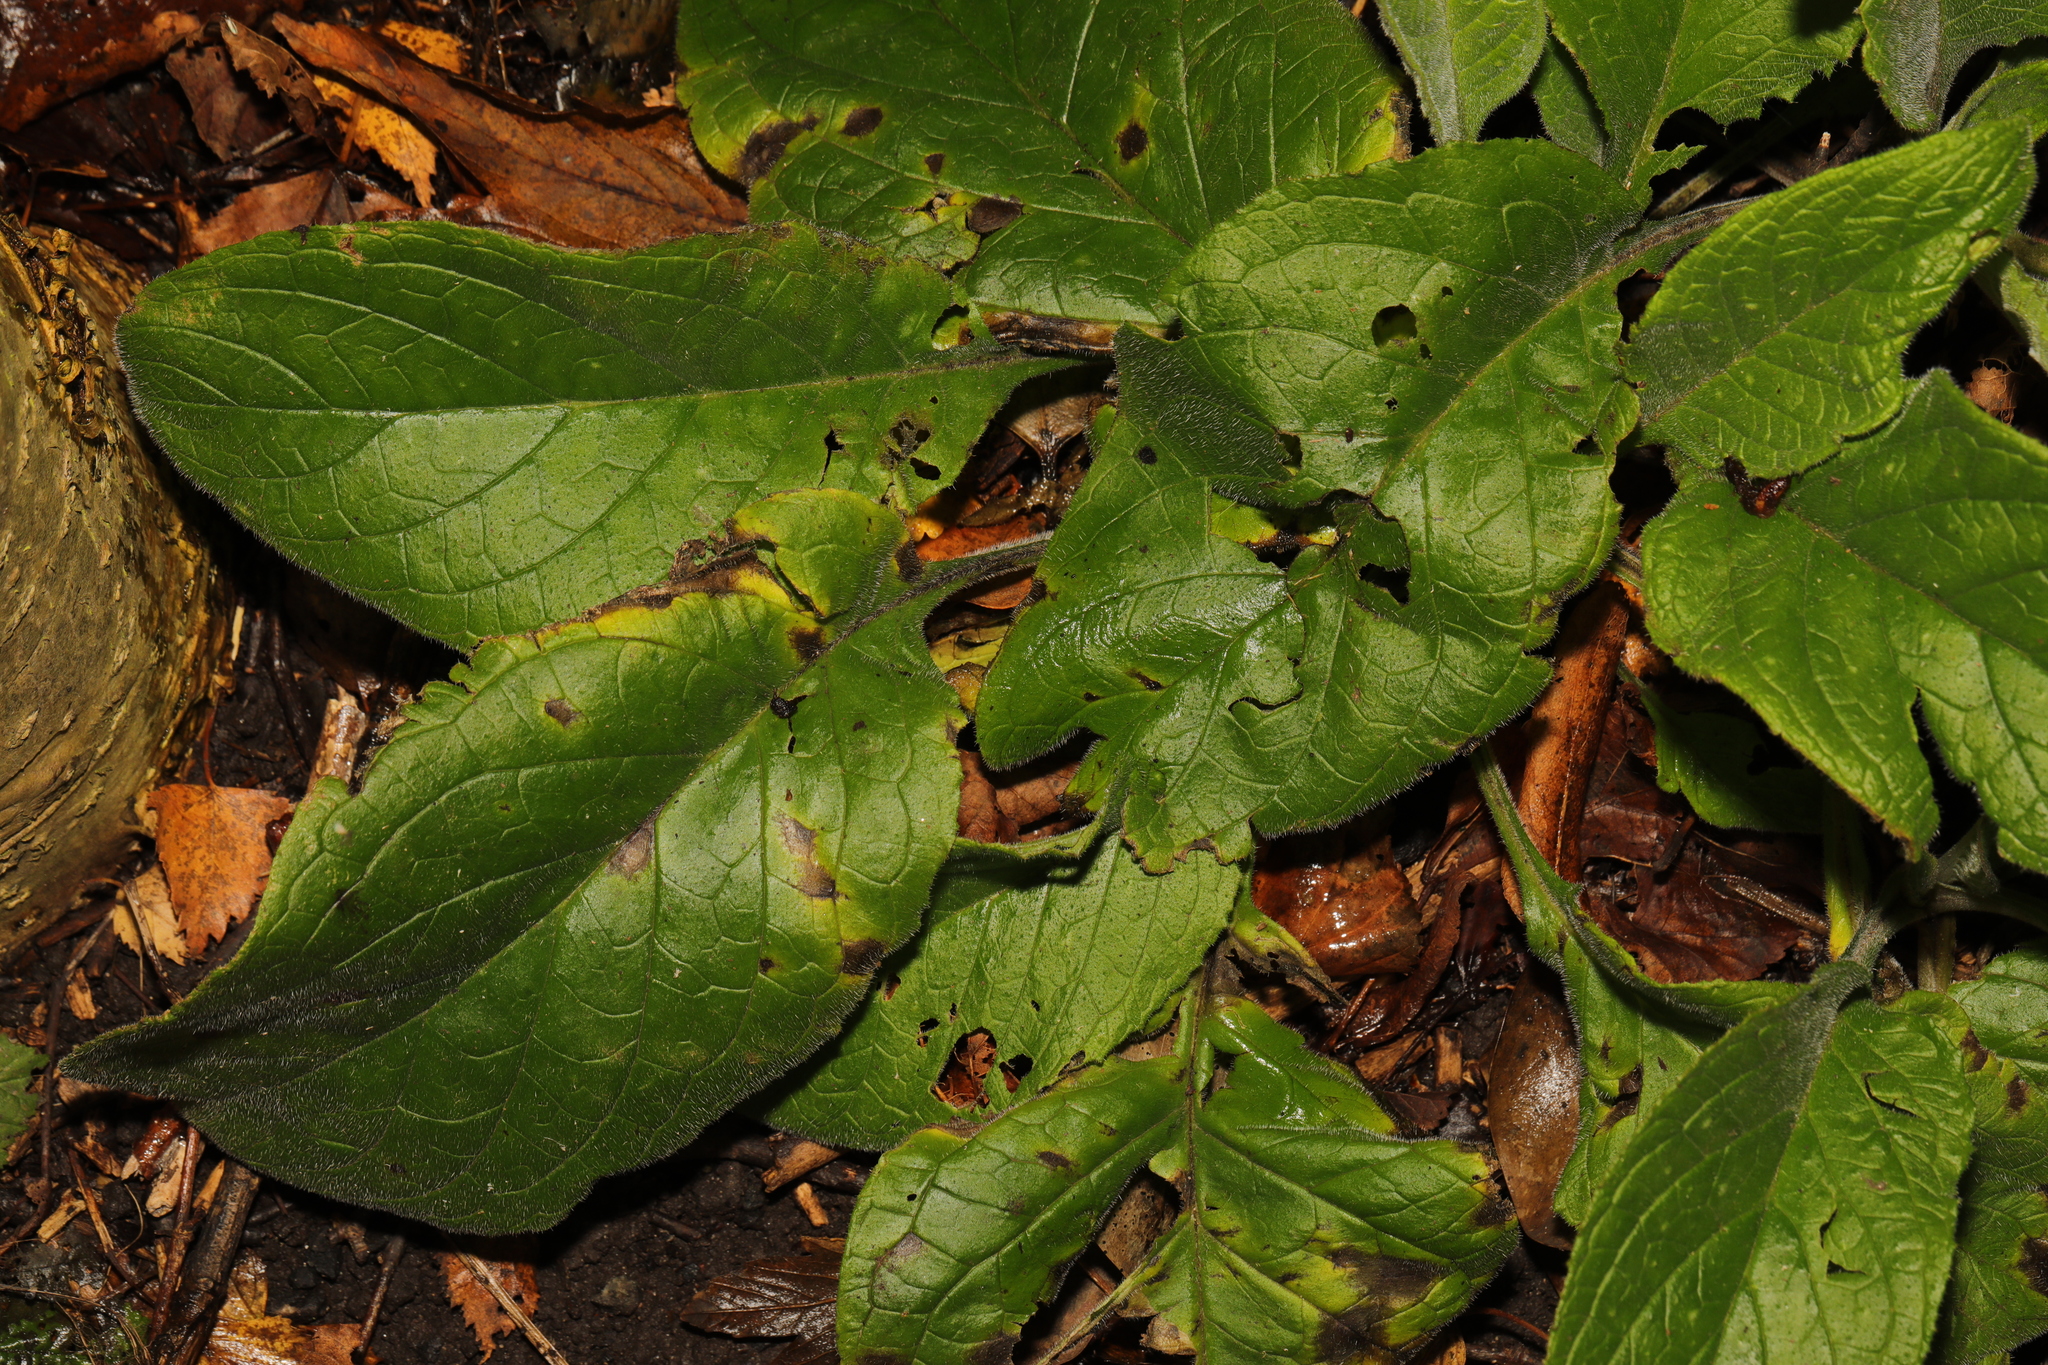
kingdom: Plantae
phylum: Tracheophyta
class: Magnoliopsida
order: Lamiales
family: Plantaginaceae
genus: Digitalis
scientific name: Digitalis purpurea
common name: Foxglove
